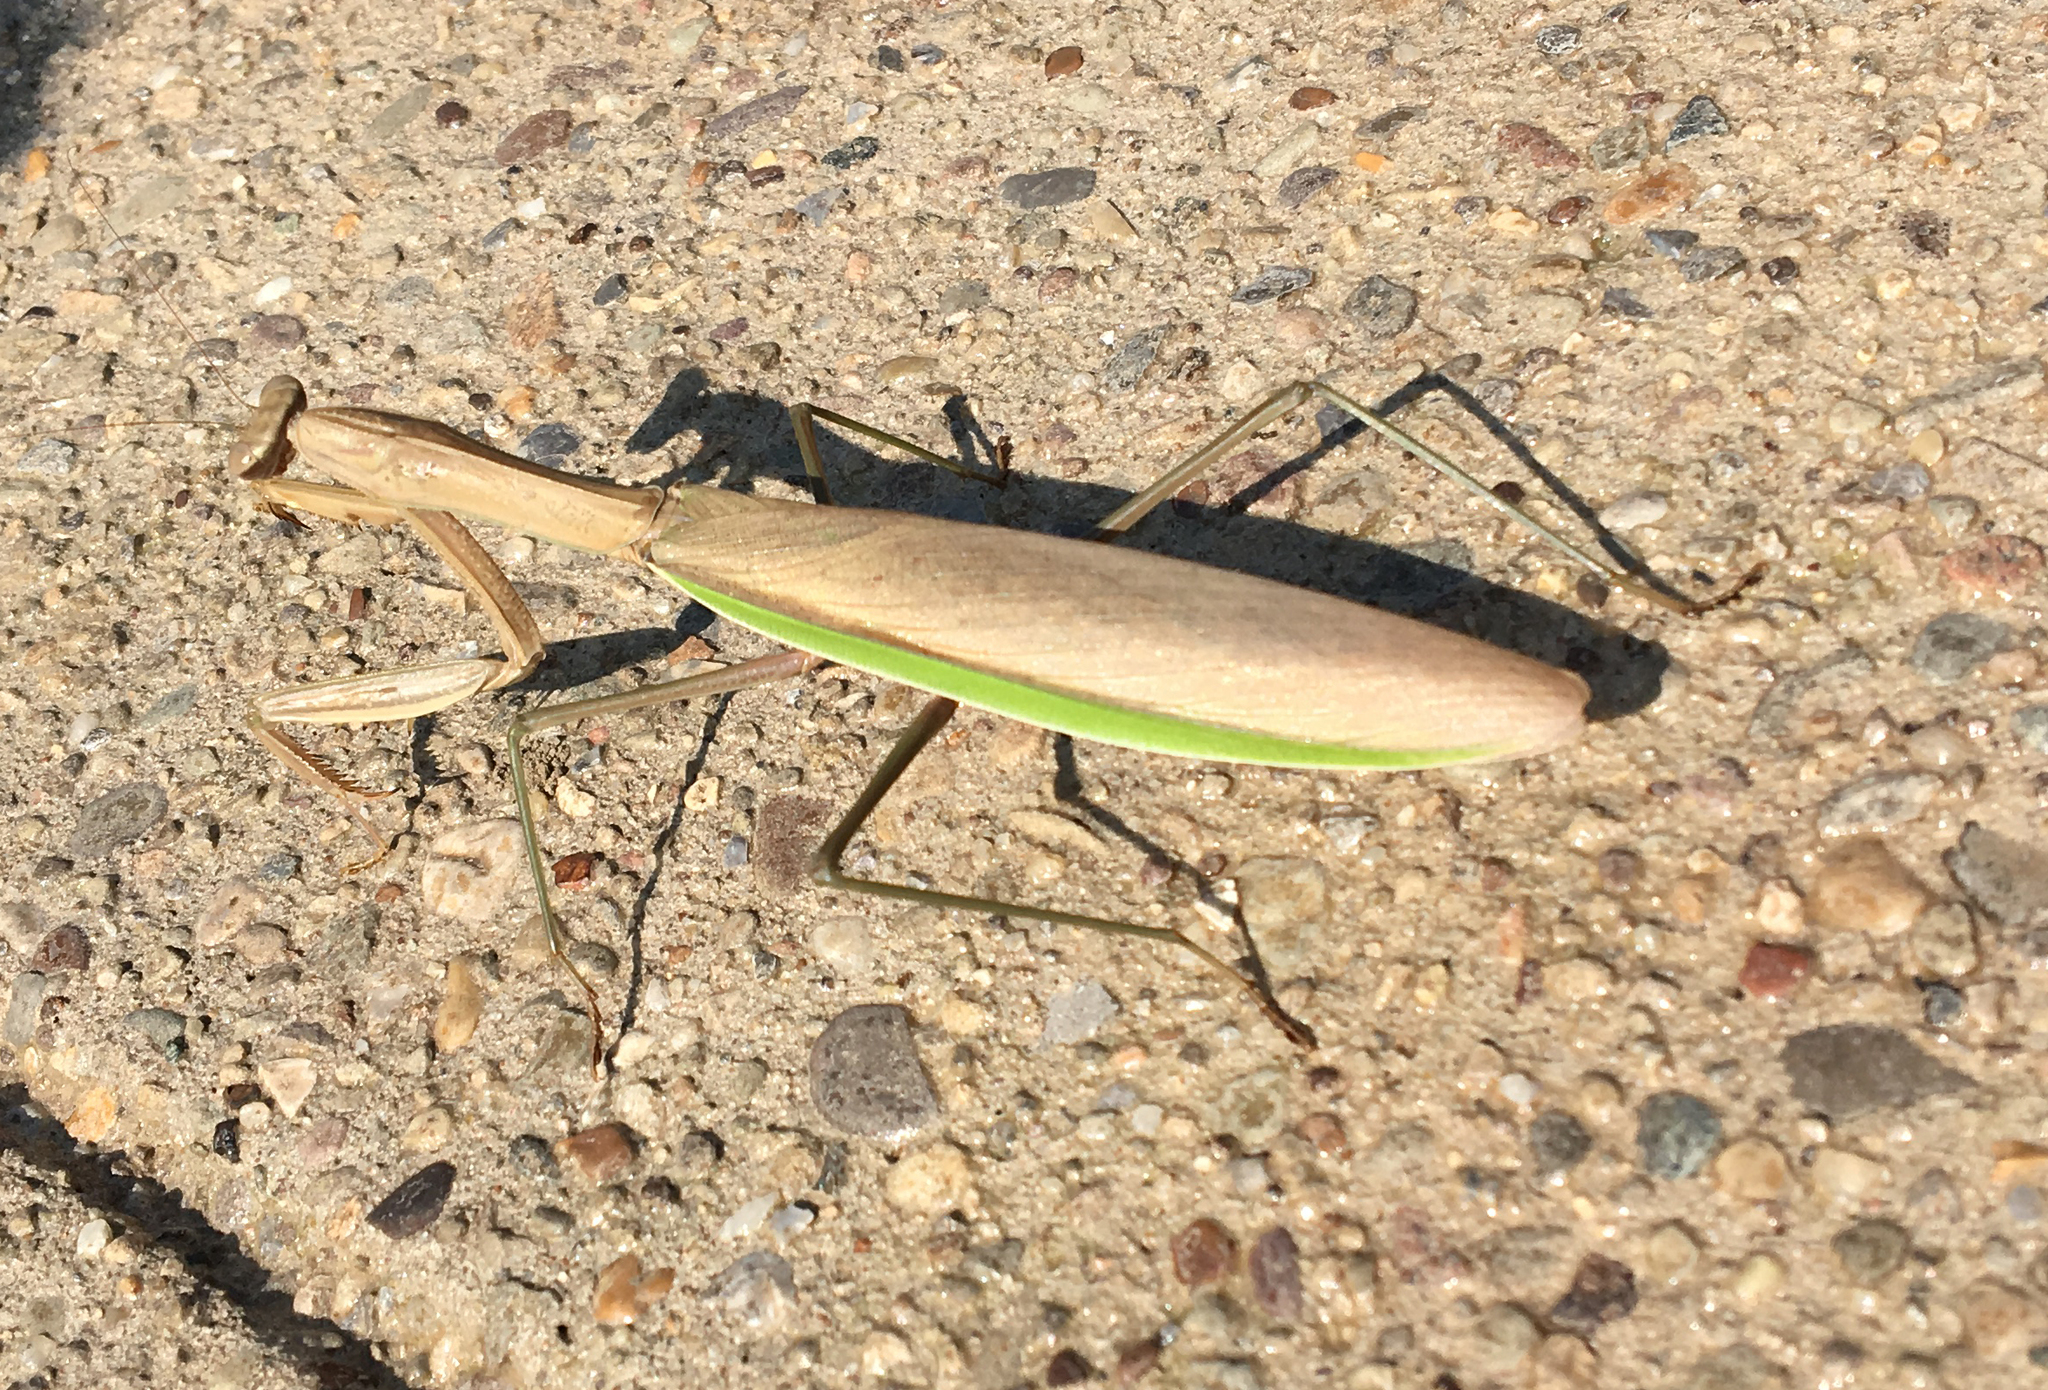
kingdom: Animalia
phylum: Arthropoda
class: Insecta
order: Mantodea
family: Mantidae
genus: Tenodera
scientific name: Tenodera sinensis
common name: Chinese mantis
